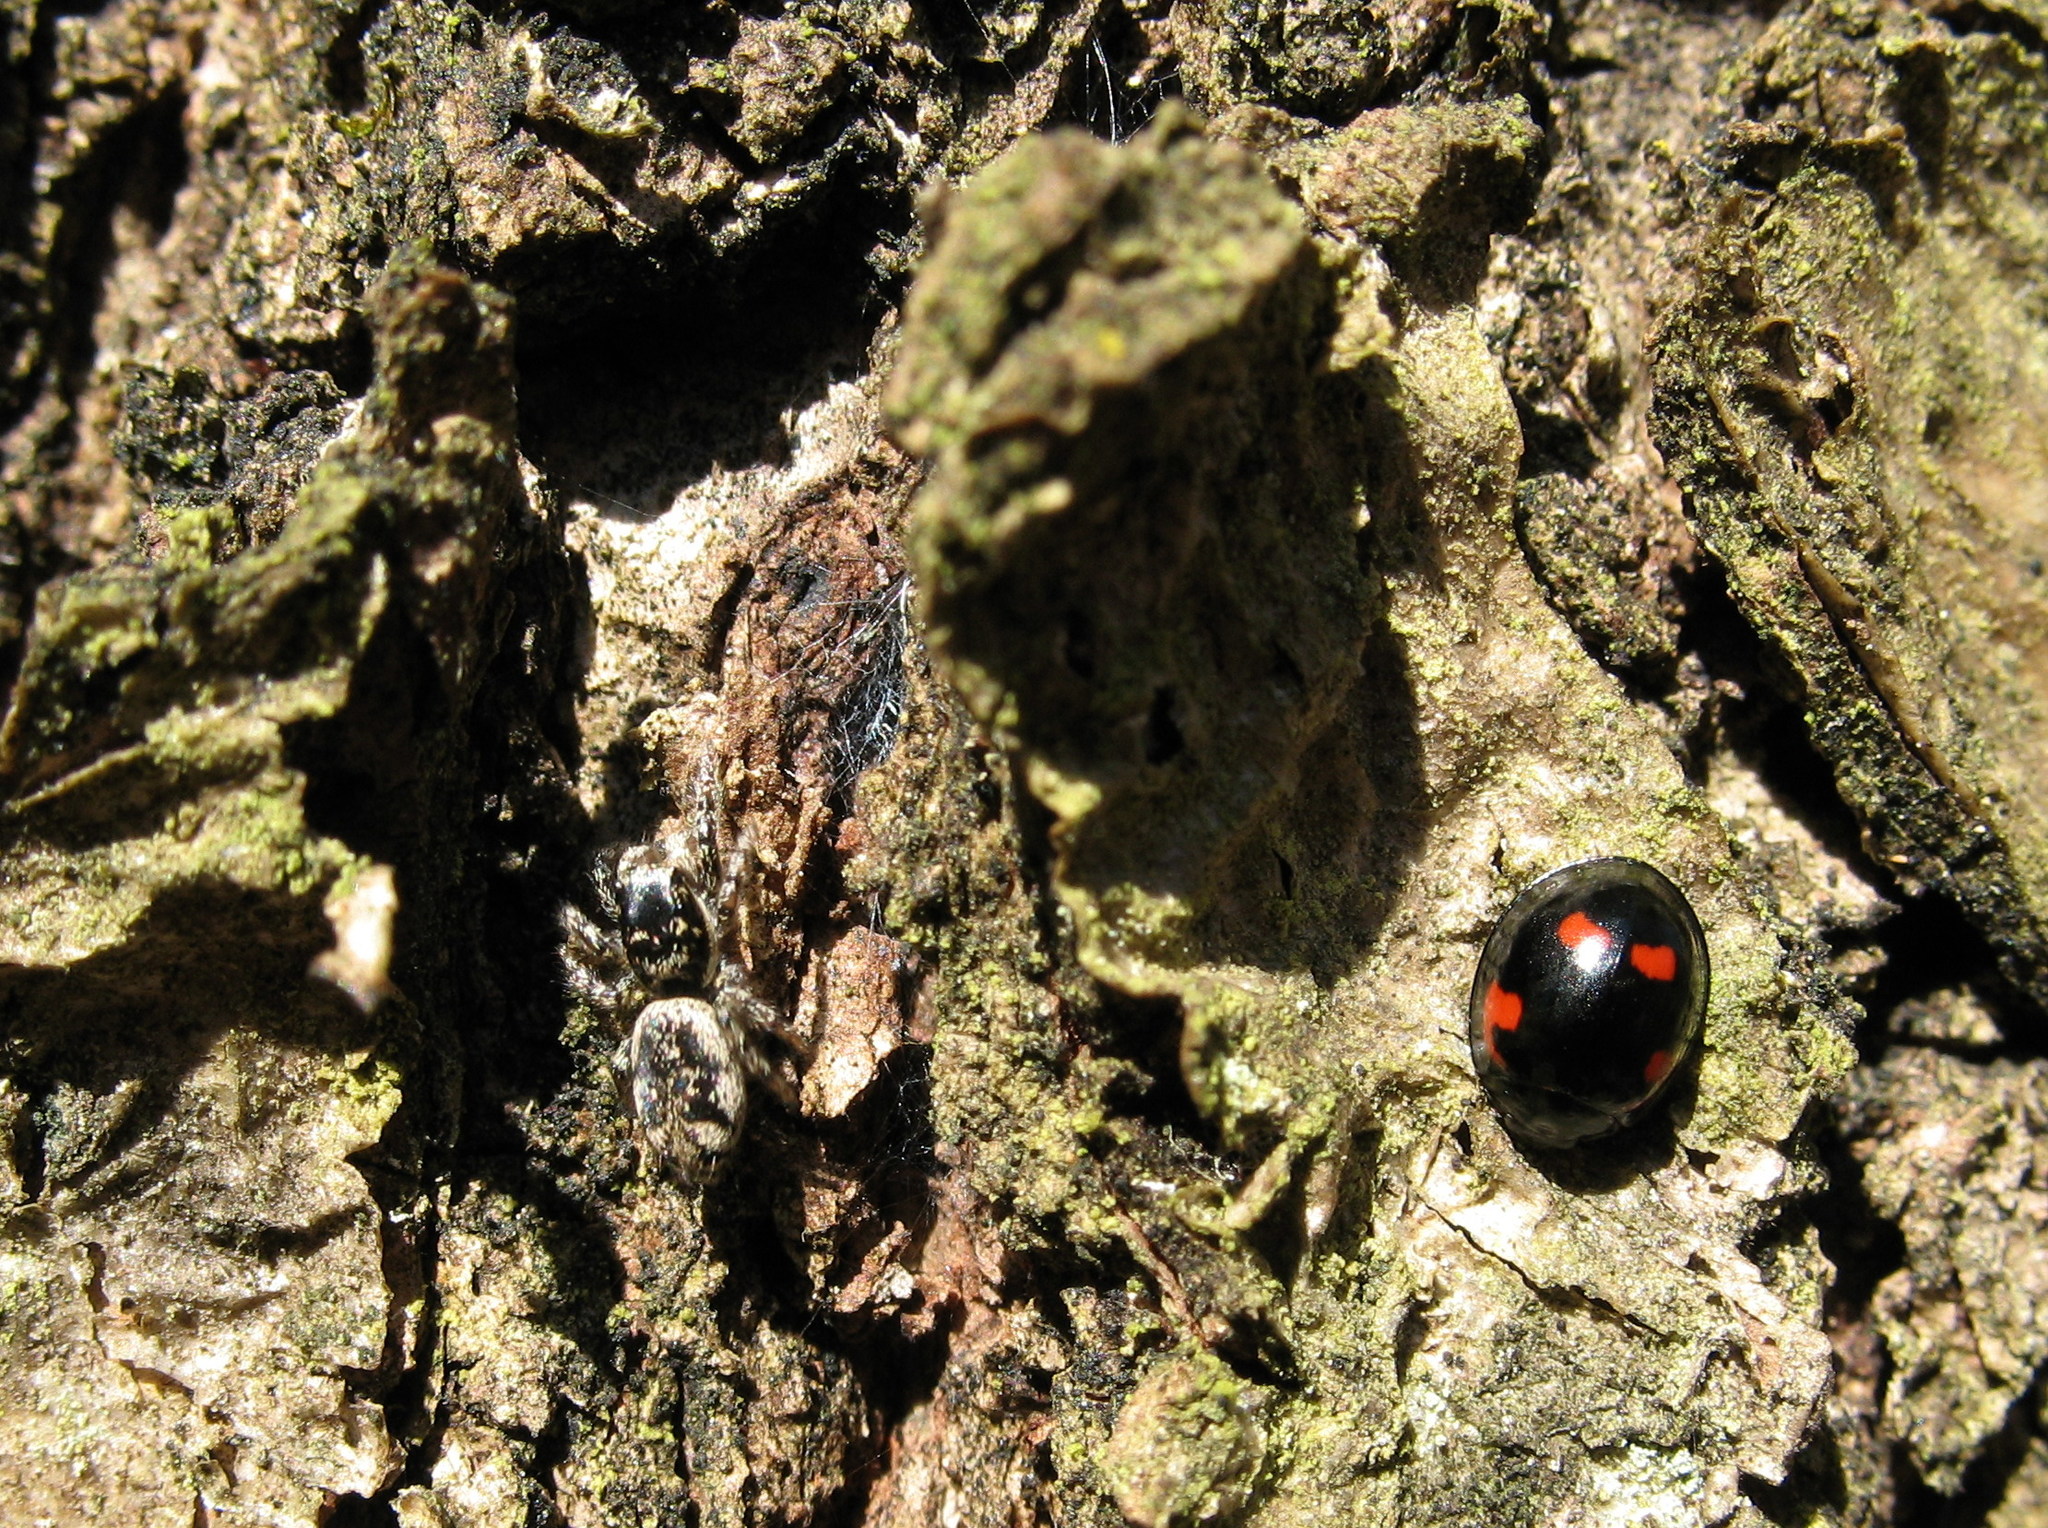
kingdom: Animalia
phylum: Arthropoda
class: Insecta
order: Coleoptera
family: Coccinellidae
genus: Brumus
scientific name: Brumus quadripustulatus
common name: Ladybird beetle
